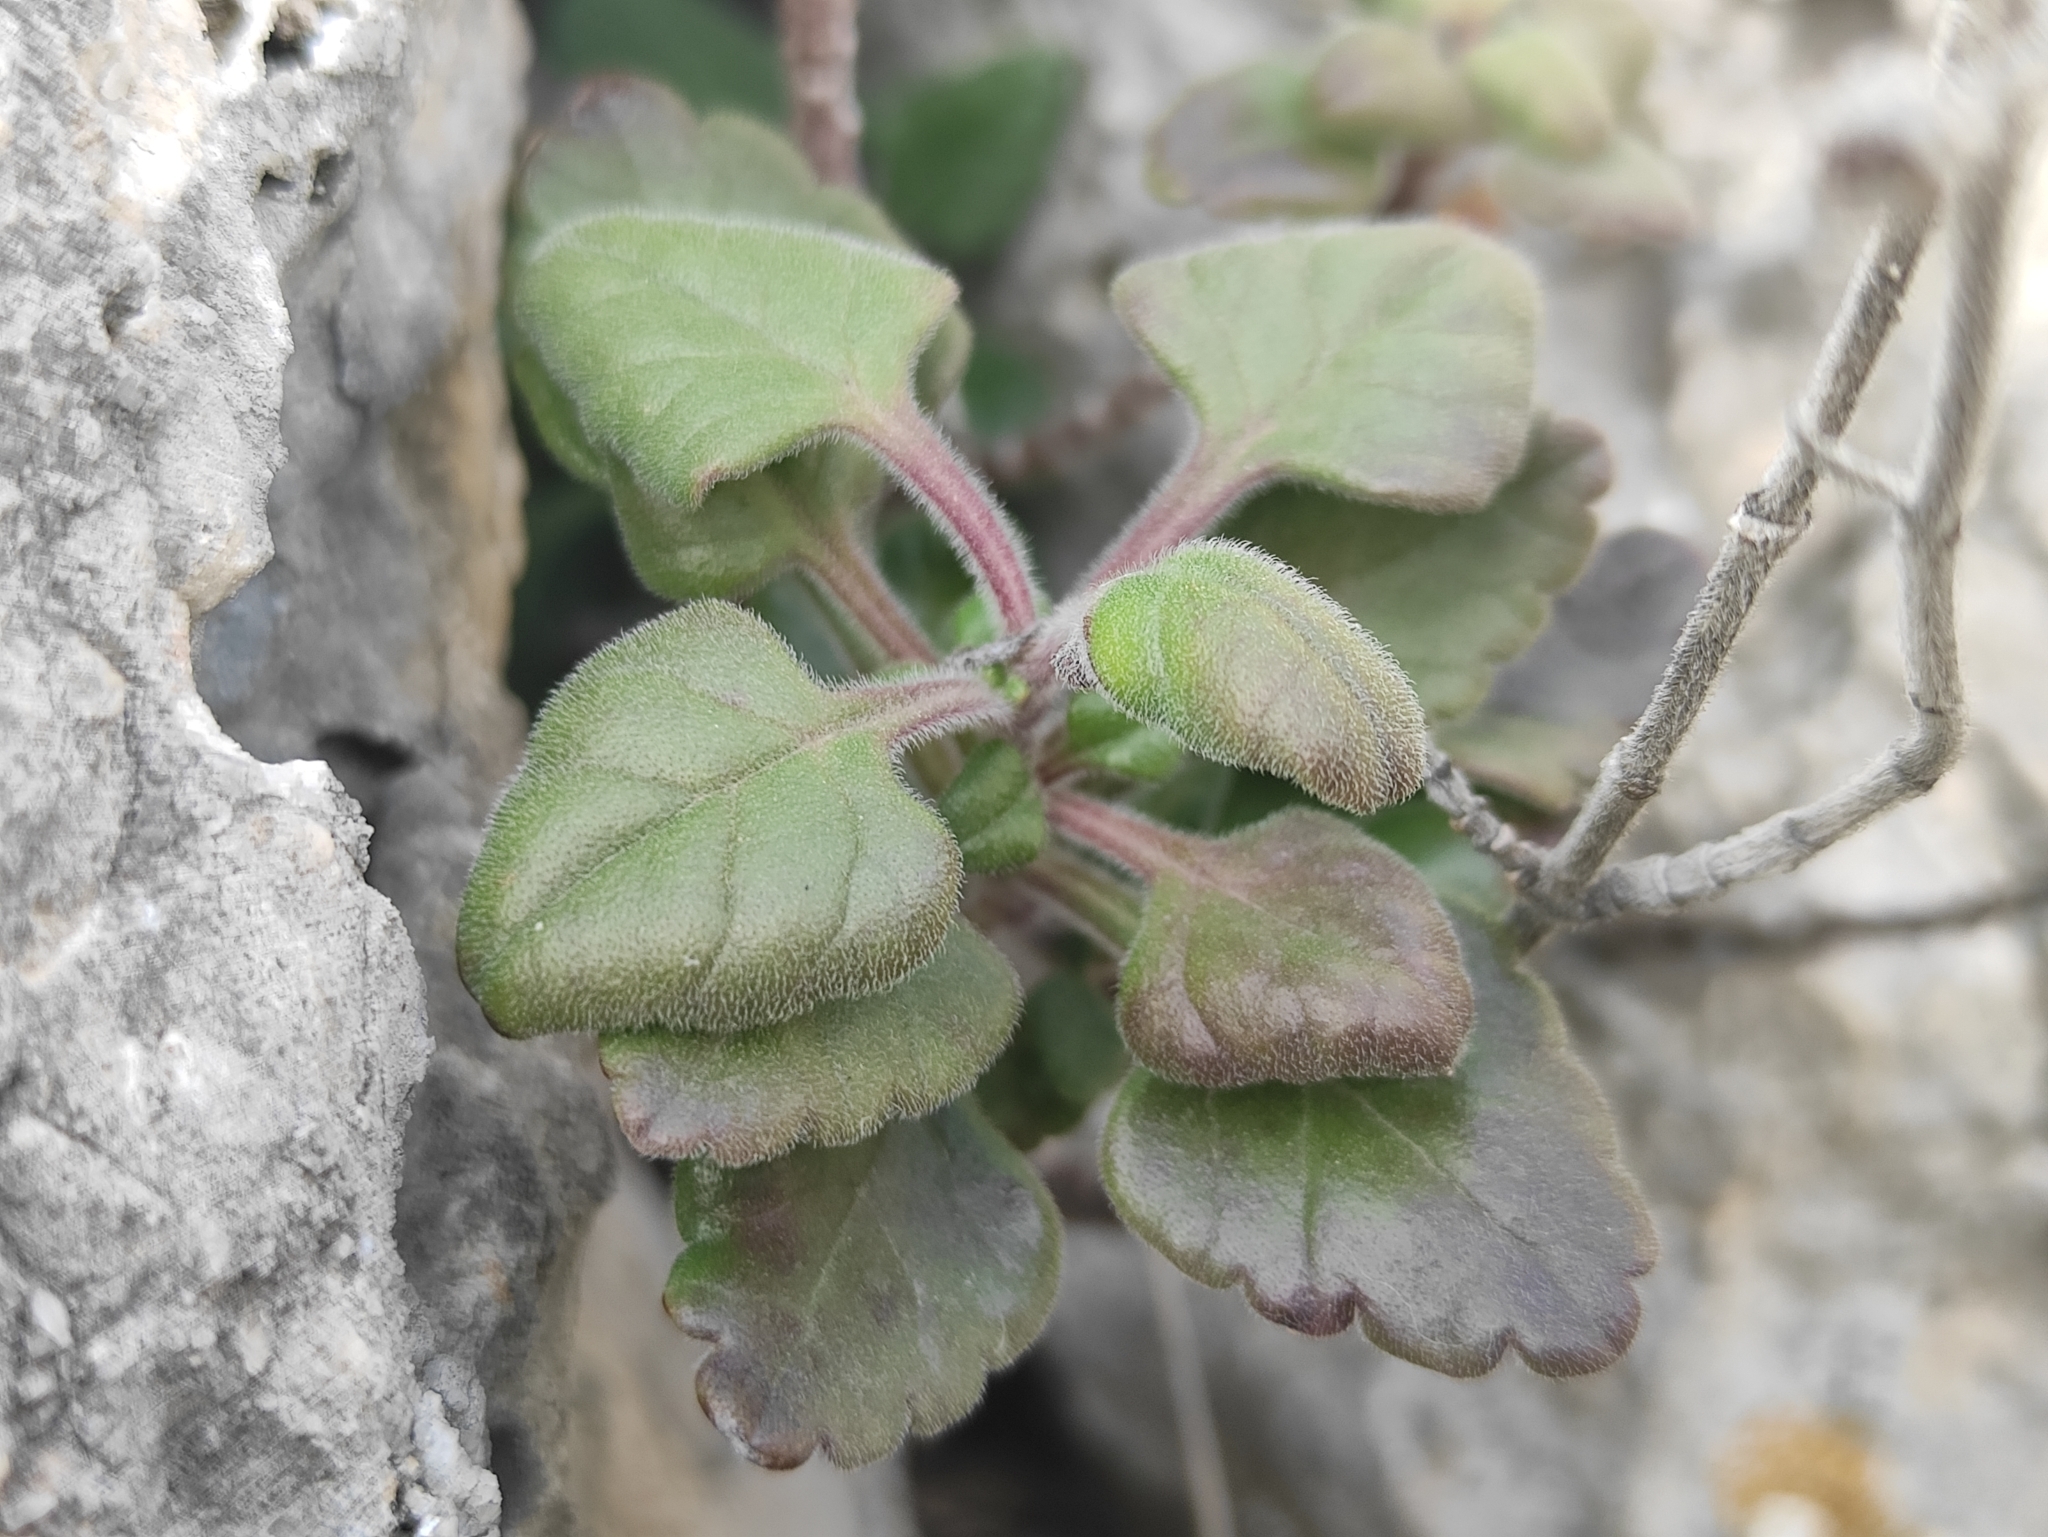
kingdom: Plantae
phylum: Tracheophyta
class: Magnoliopsida
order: Lamiales
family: Lamiaceae
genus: Teucrium
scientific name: Teucrium flavum
